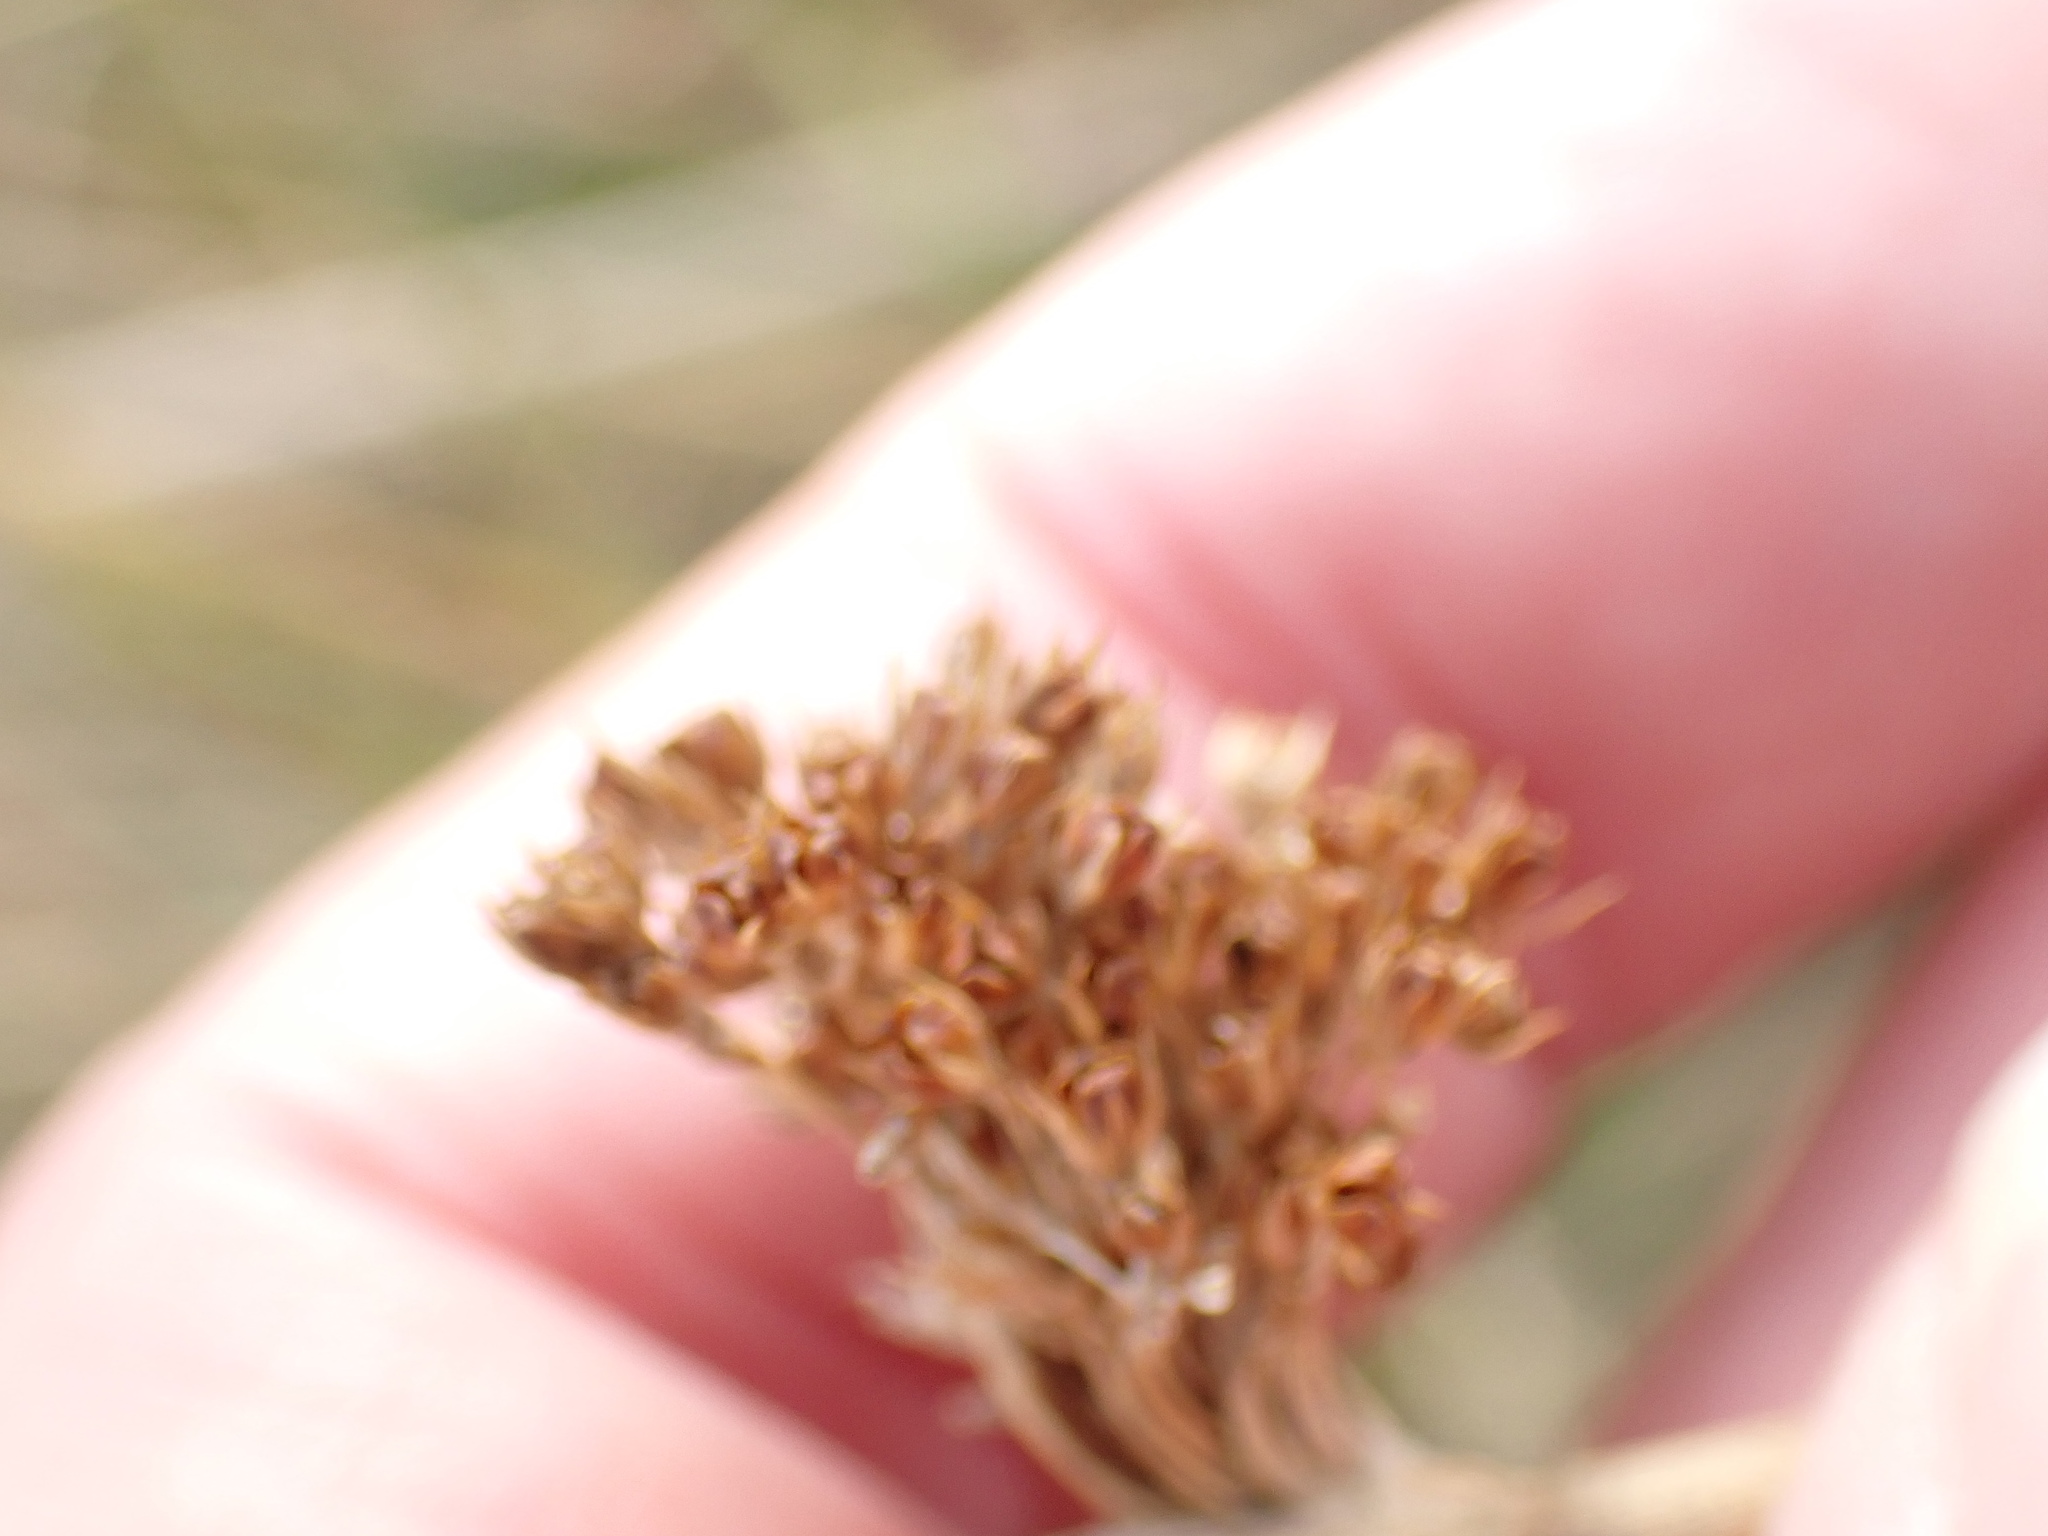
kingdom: Plantae
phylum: Tracheophyta
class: Liliopsida
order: Poales
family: Juncaceae
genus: Juncus
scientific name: Juncus effusus
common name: Soft rush
